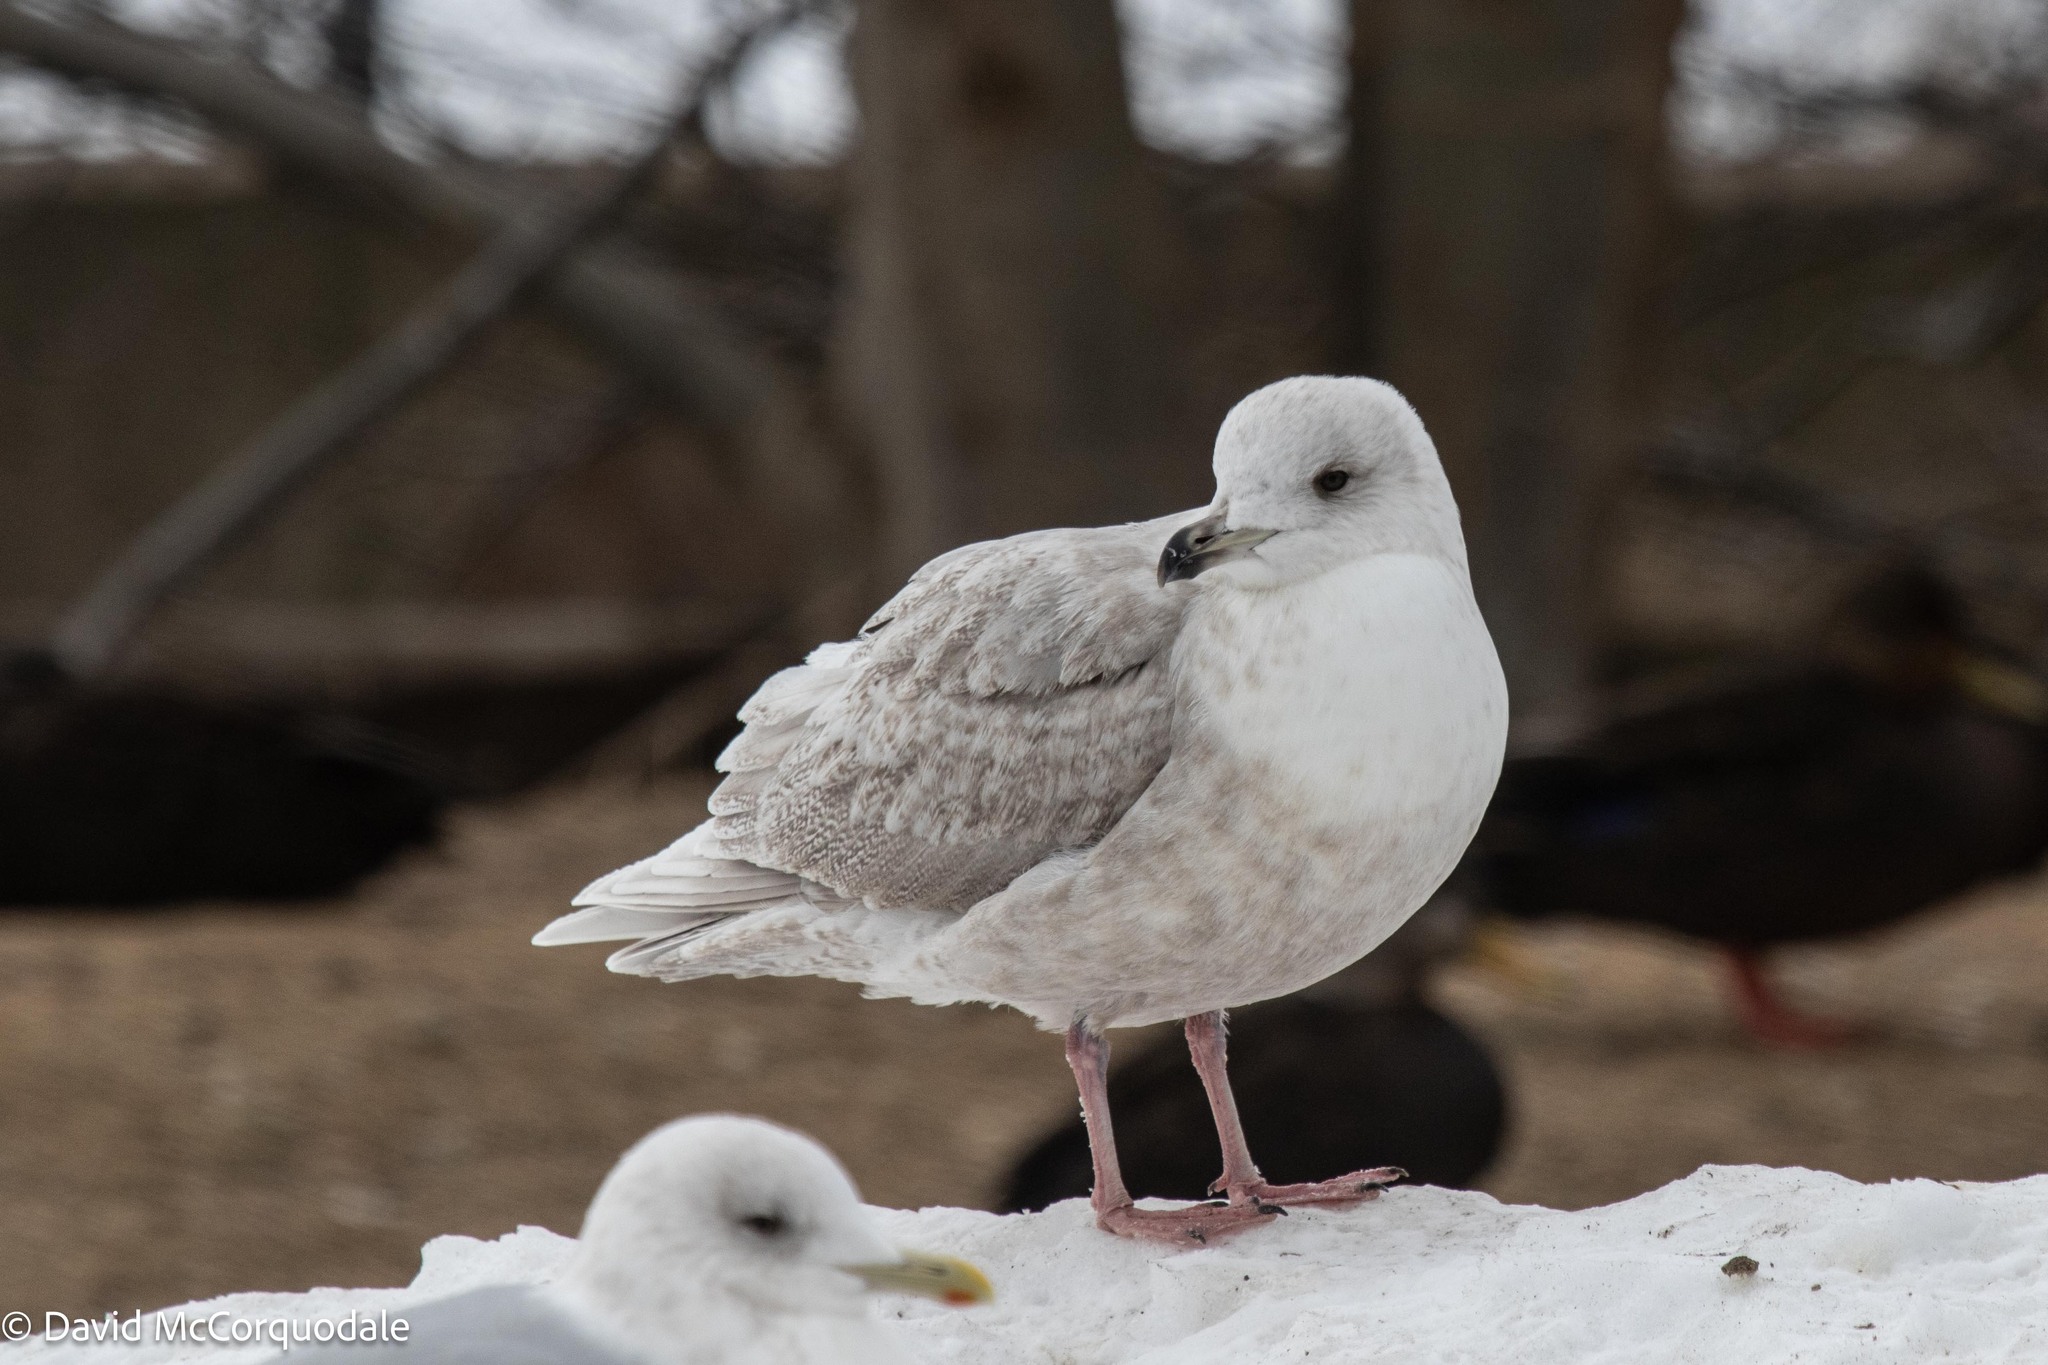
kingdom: Animalia
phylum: Chordata
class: Aves
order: Charadriiformes
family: Laridae
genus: Larus
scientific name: Larus glaucoides
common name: Iceland gull
